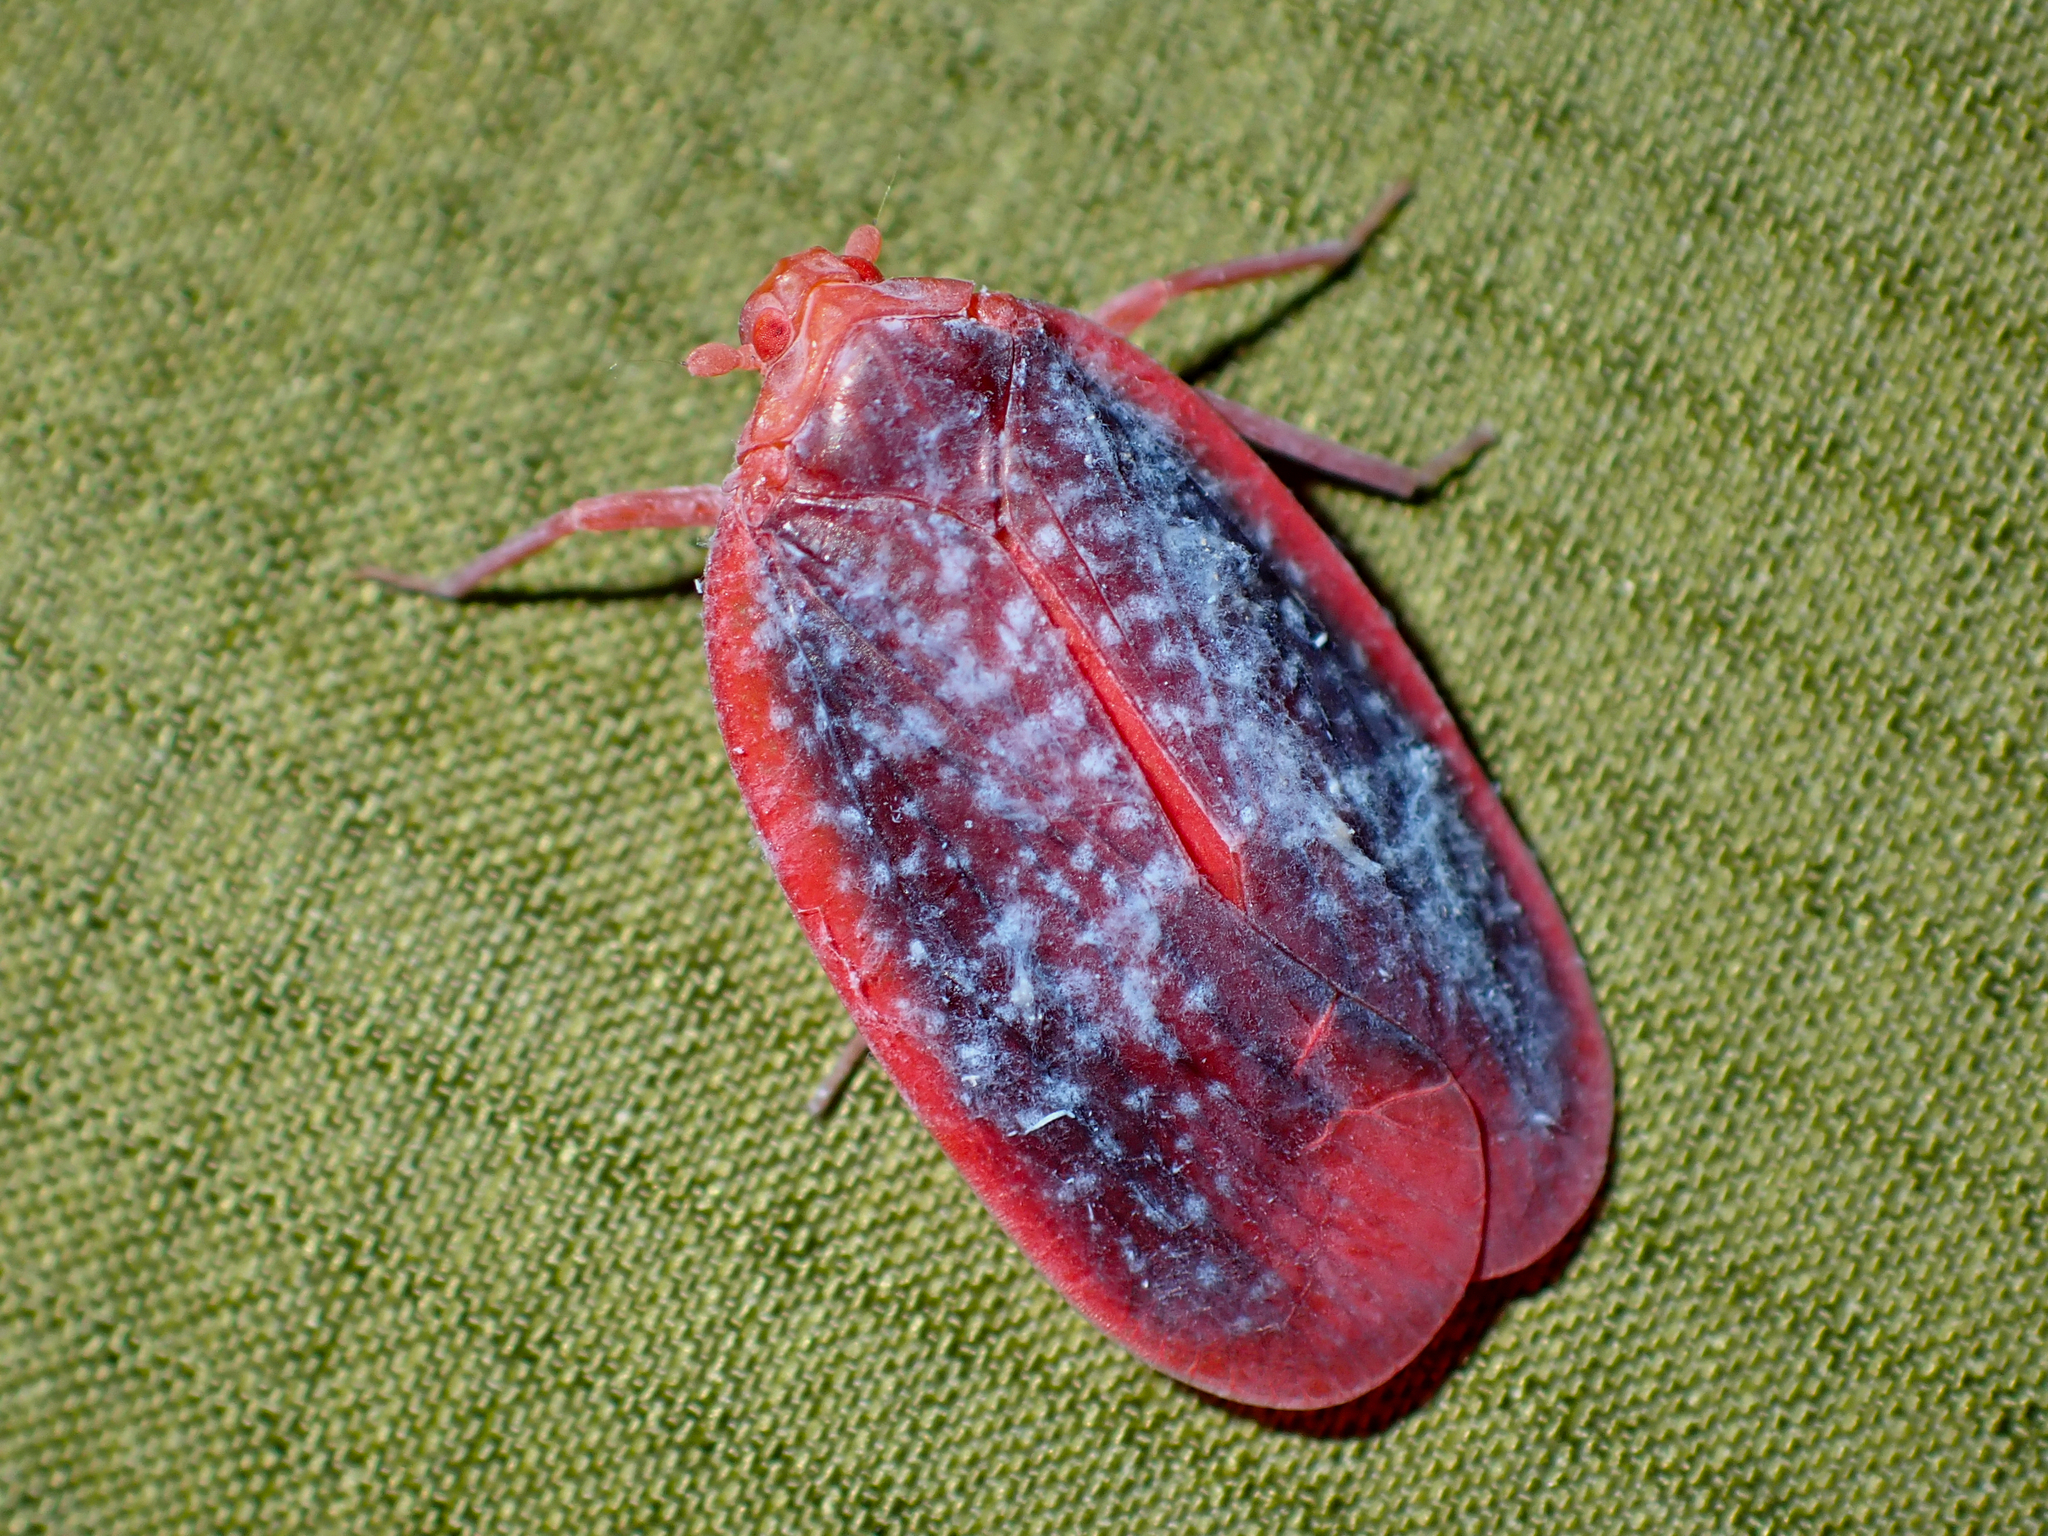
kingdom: Animalia
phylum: Arthropoda
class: Insecta
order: Hemiptera
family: Achilidae
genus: Achilus
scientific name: Achilus flammeus
